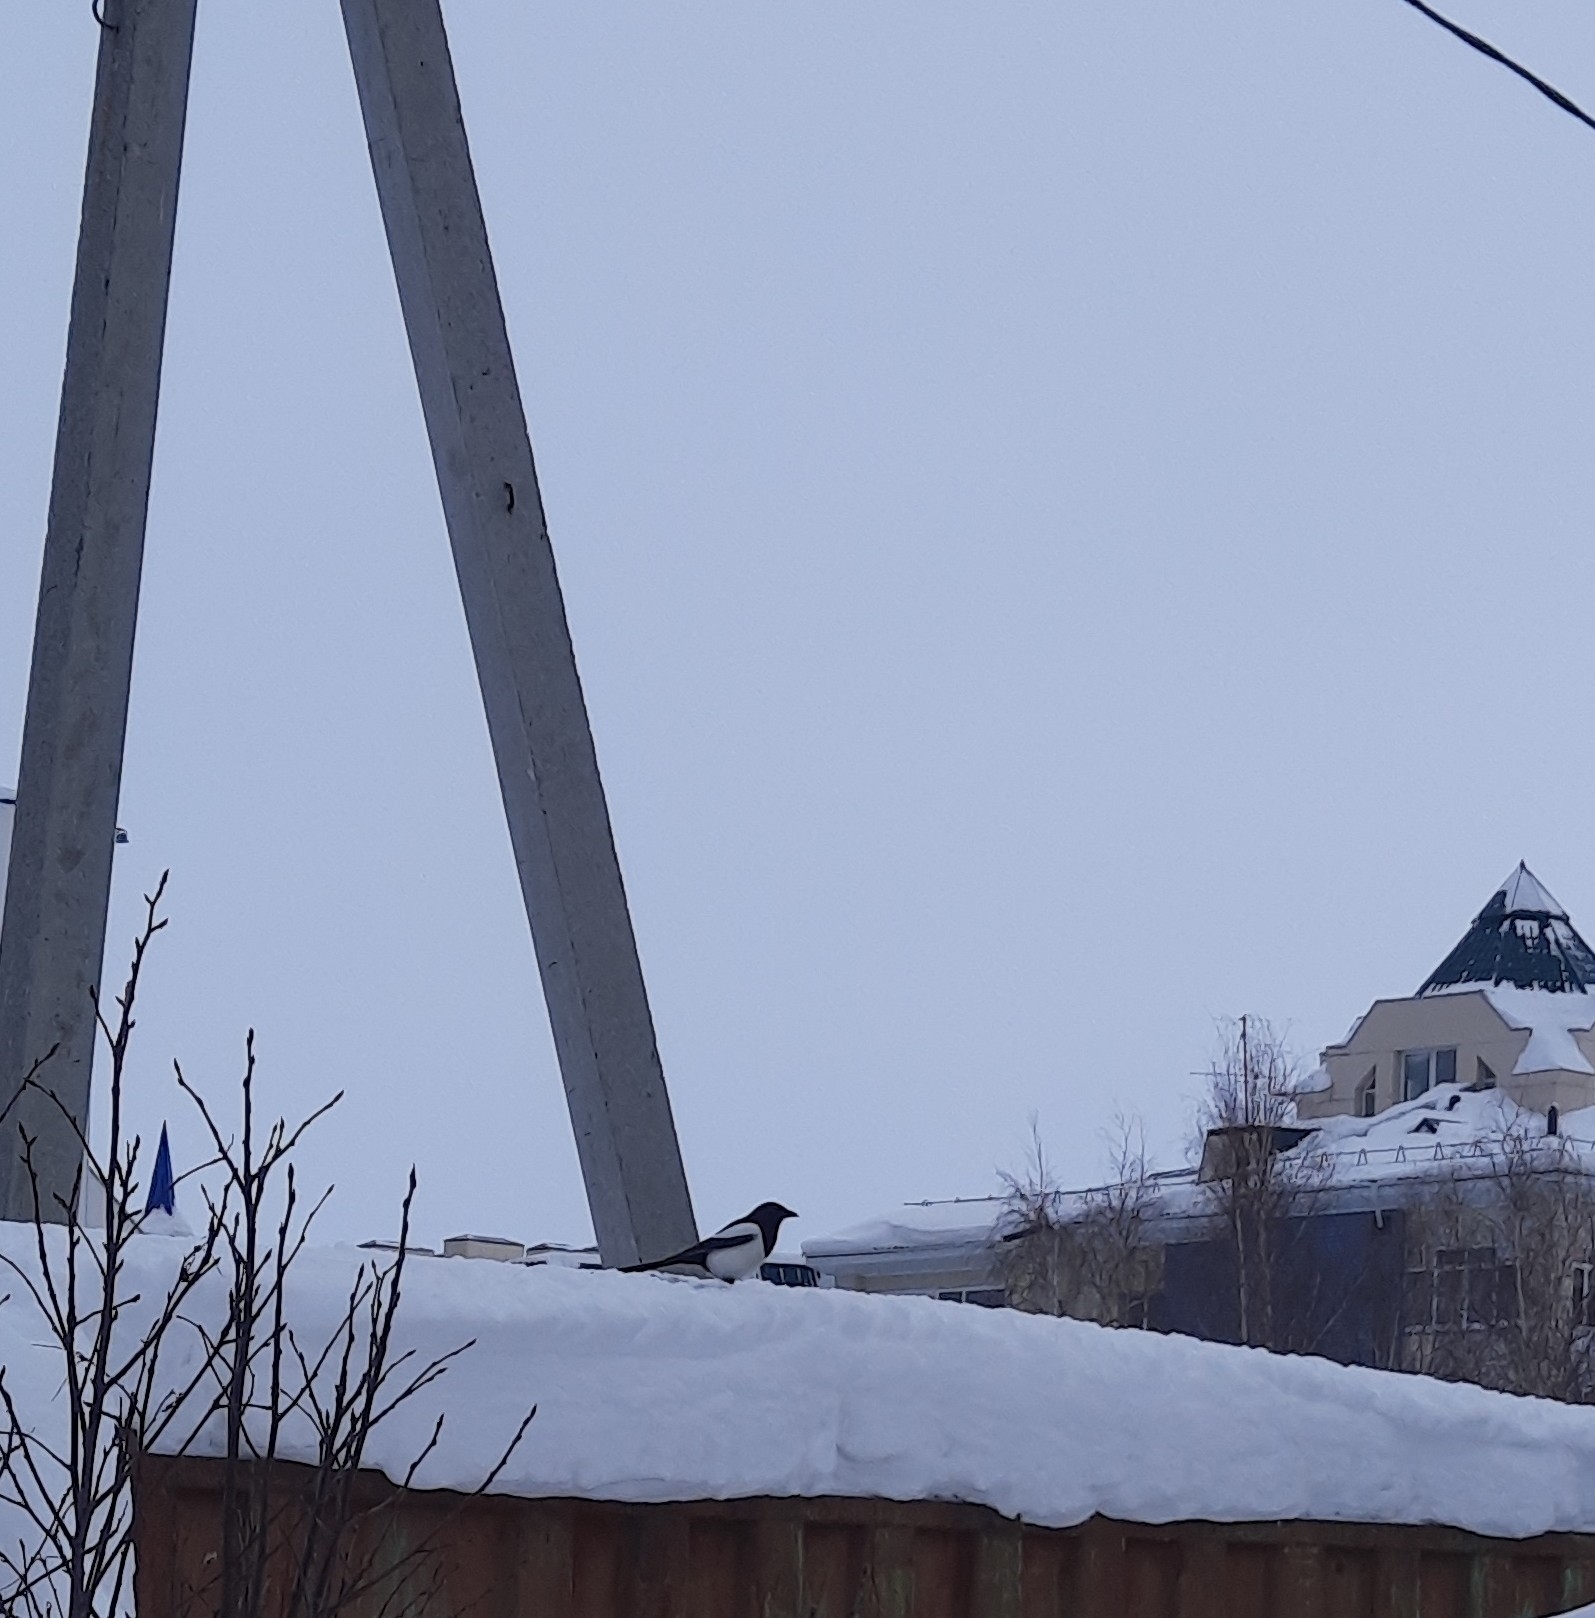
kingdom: Animalia
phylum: Chordata
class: Aves
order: Passeriformes
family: Corvidae
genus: Pica
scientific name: Pica pica
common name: Eurasian magpie
